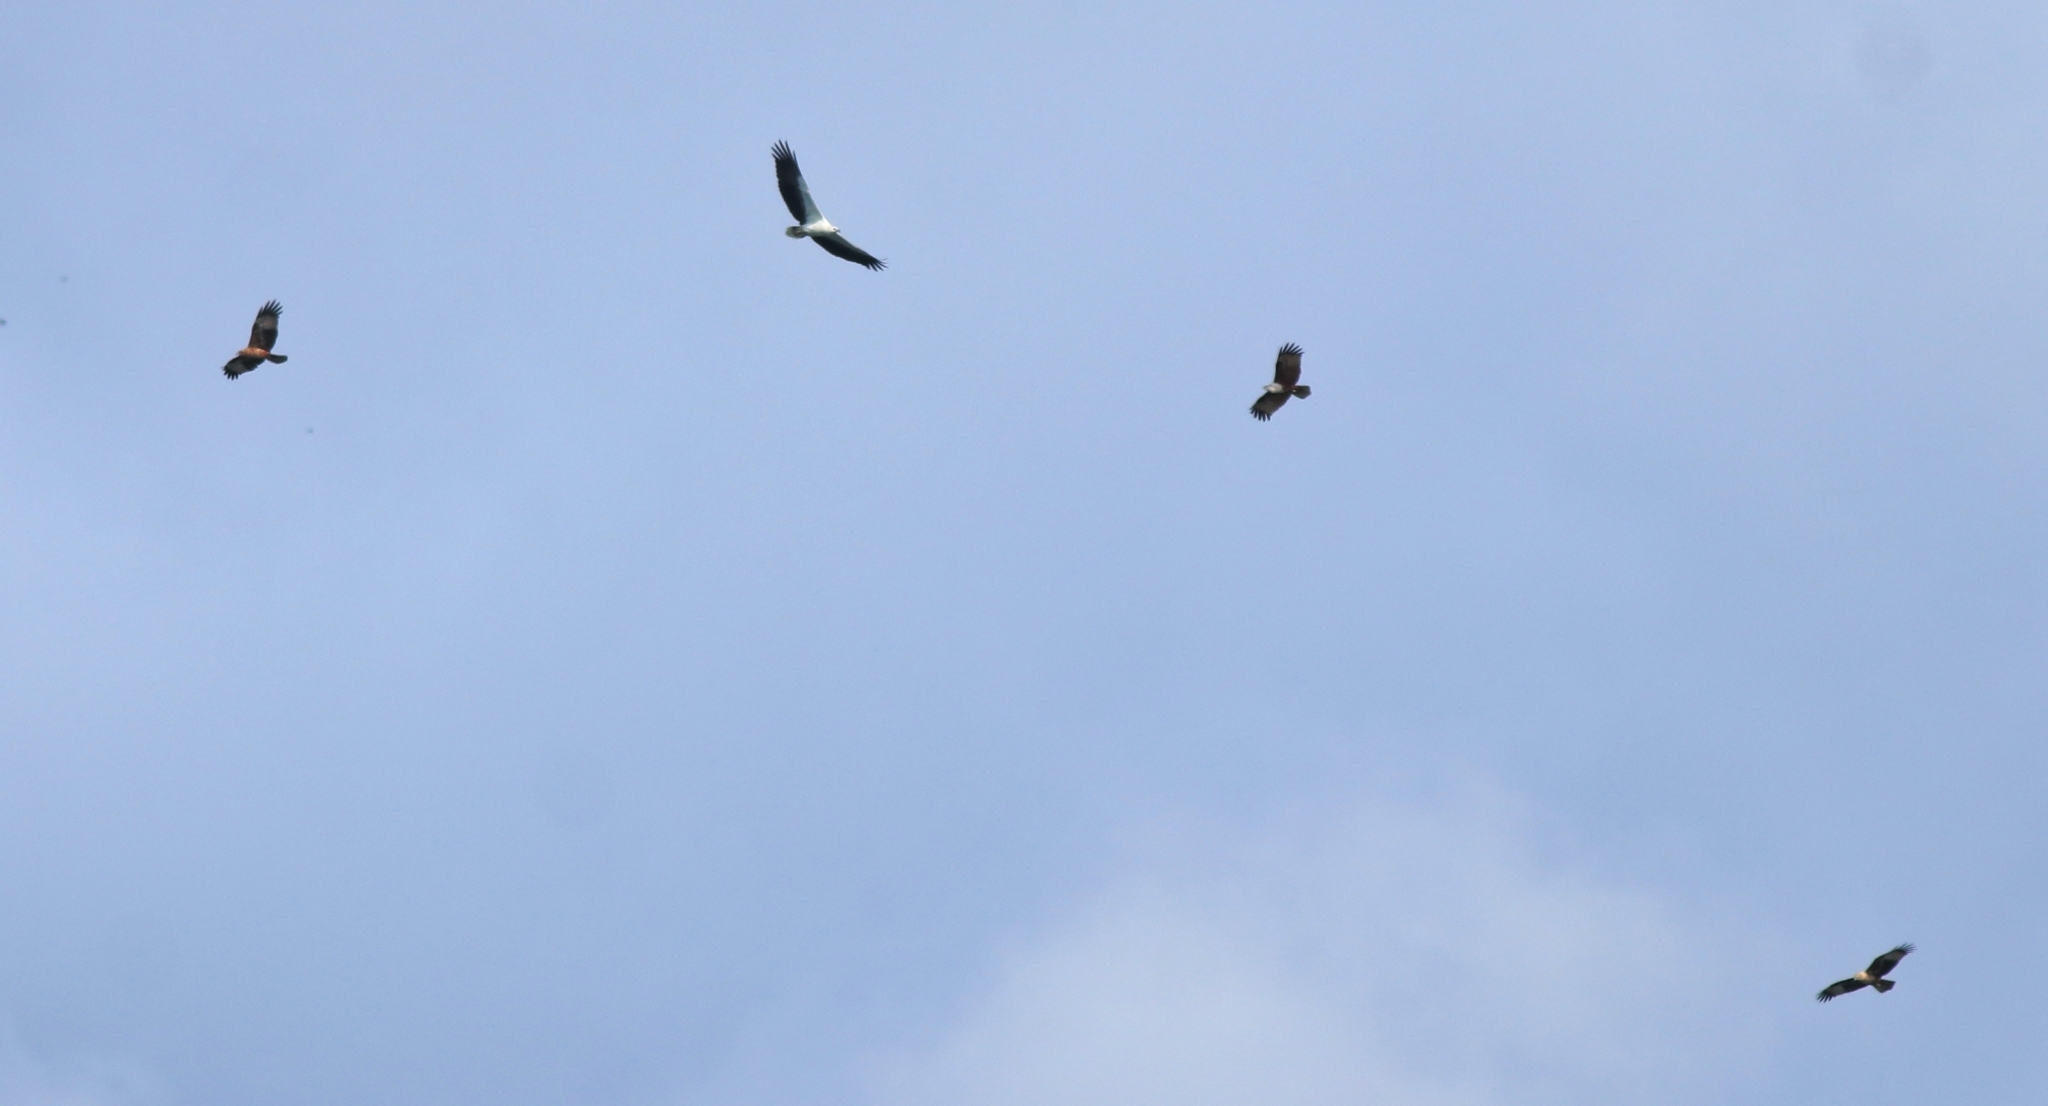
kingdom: Animalia
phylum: Chordata
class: Aves
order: Accipitriformes
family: Accipitridae
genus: Haliaeetus
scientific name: Haliaeetus leucogaster
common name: White-bellied sea eagle
